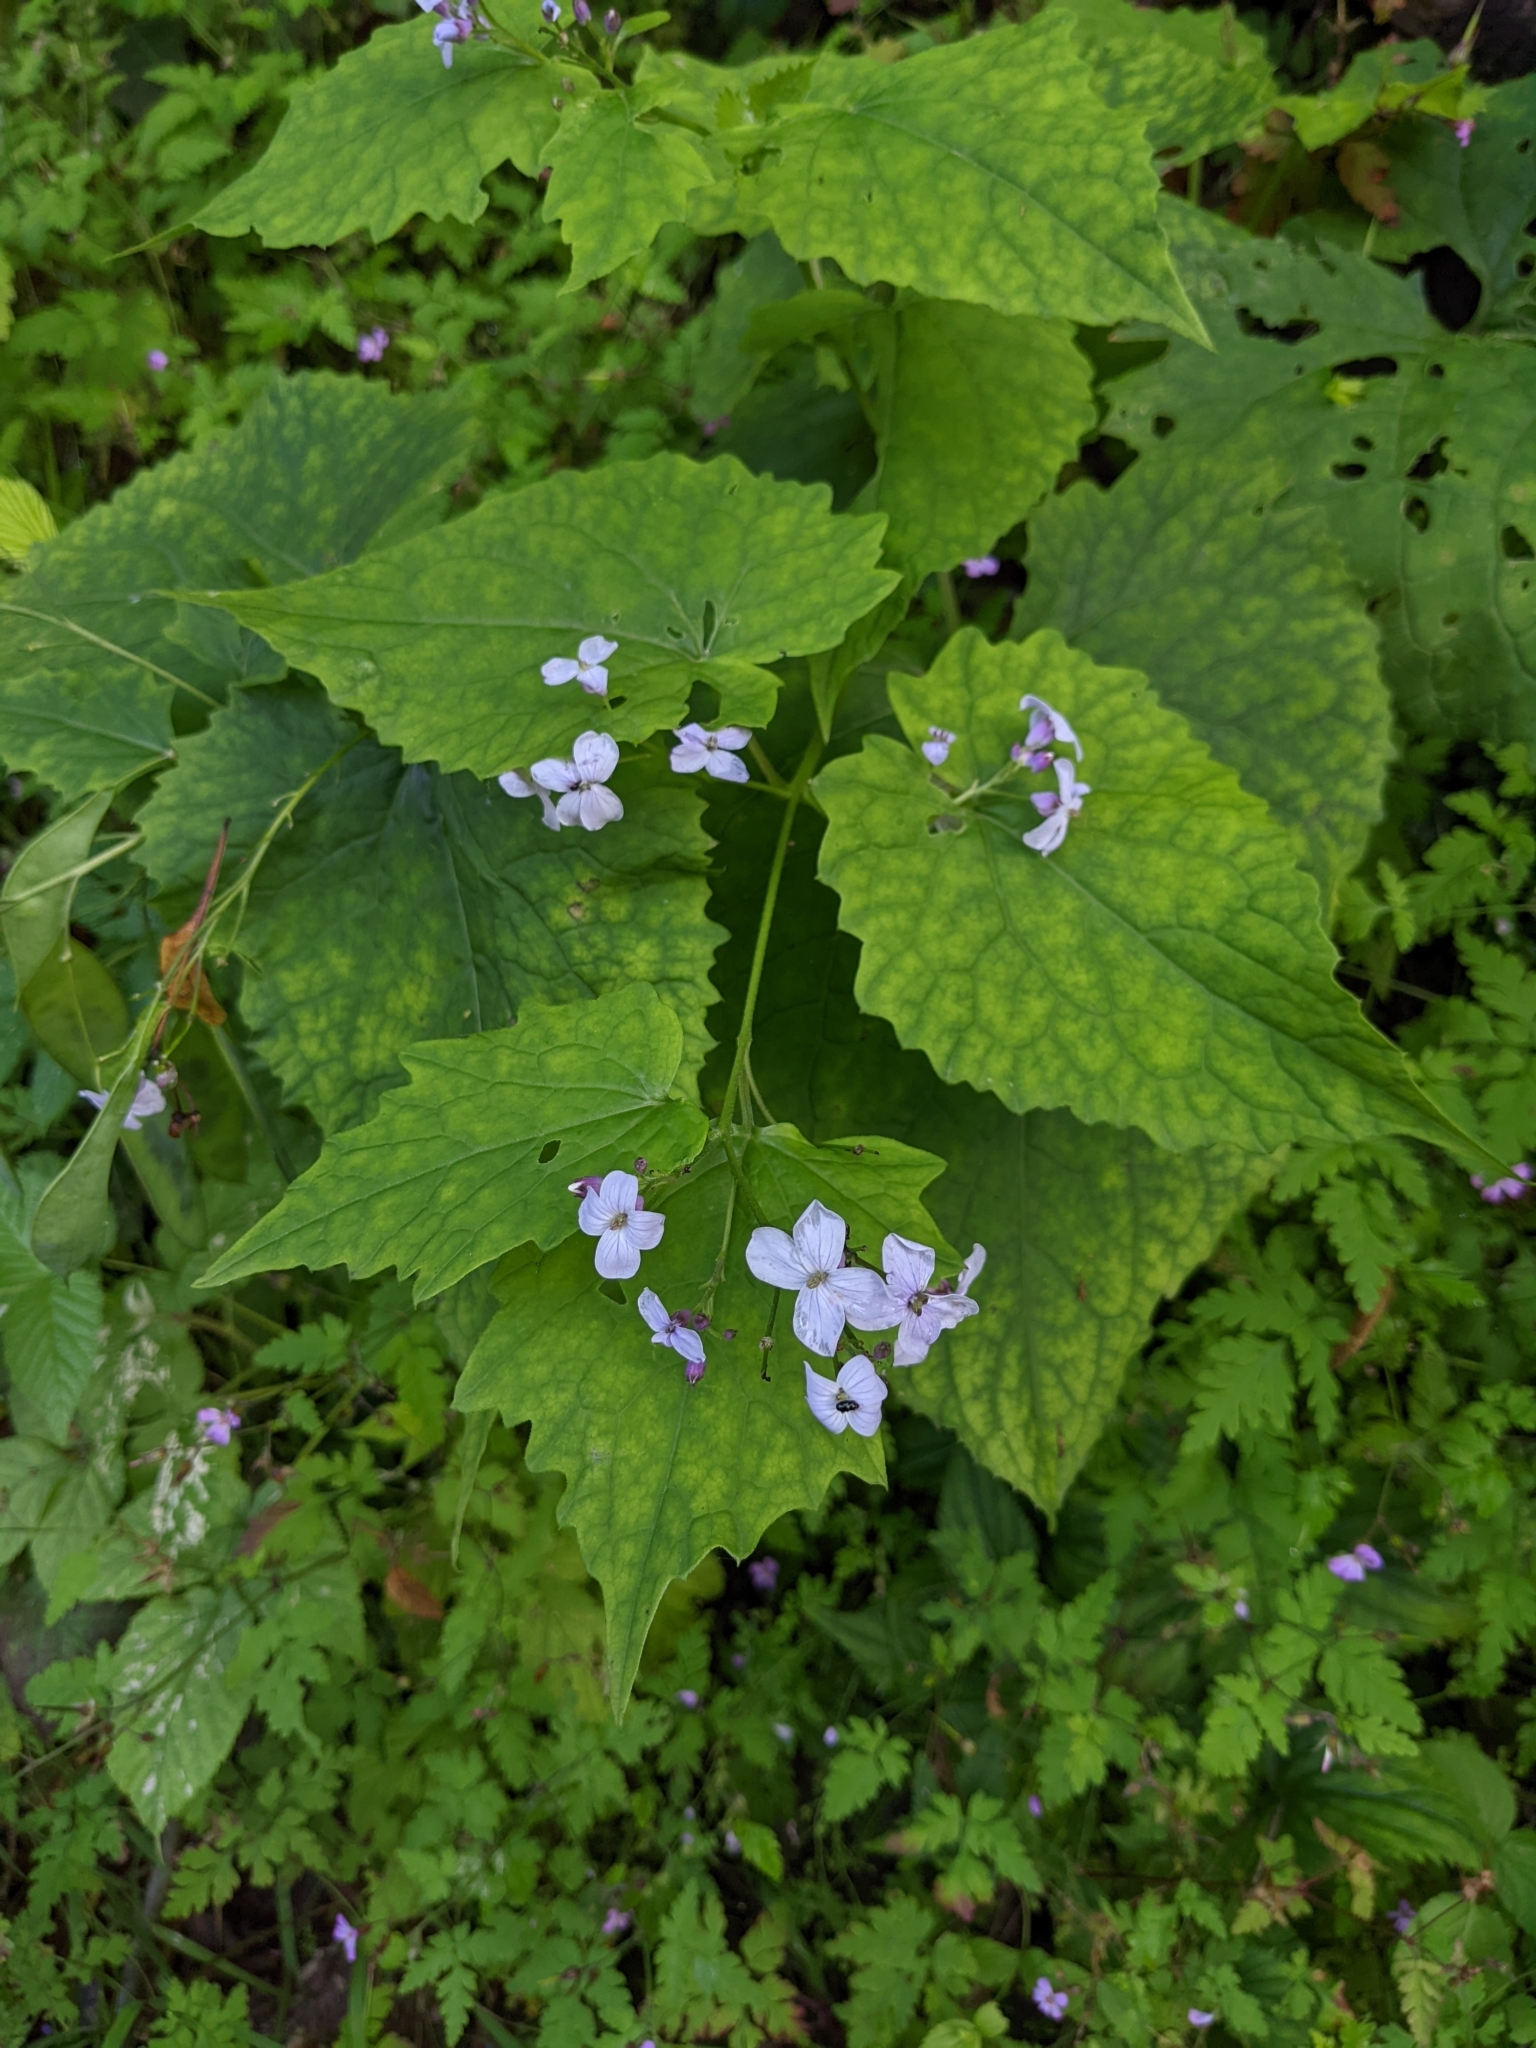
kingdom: Plantae
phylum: Tracheophyta
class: Magnoliopsida
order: Brassicales
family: Brassicaceae
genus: Lunaria
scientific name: Lunaria rediviva
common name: Perennial honesty
